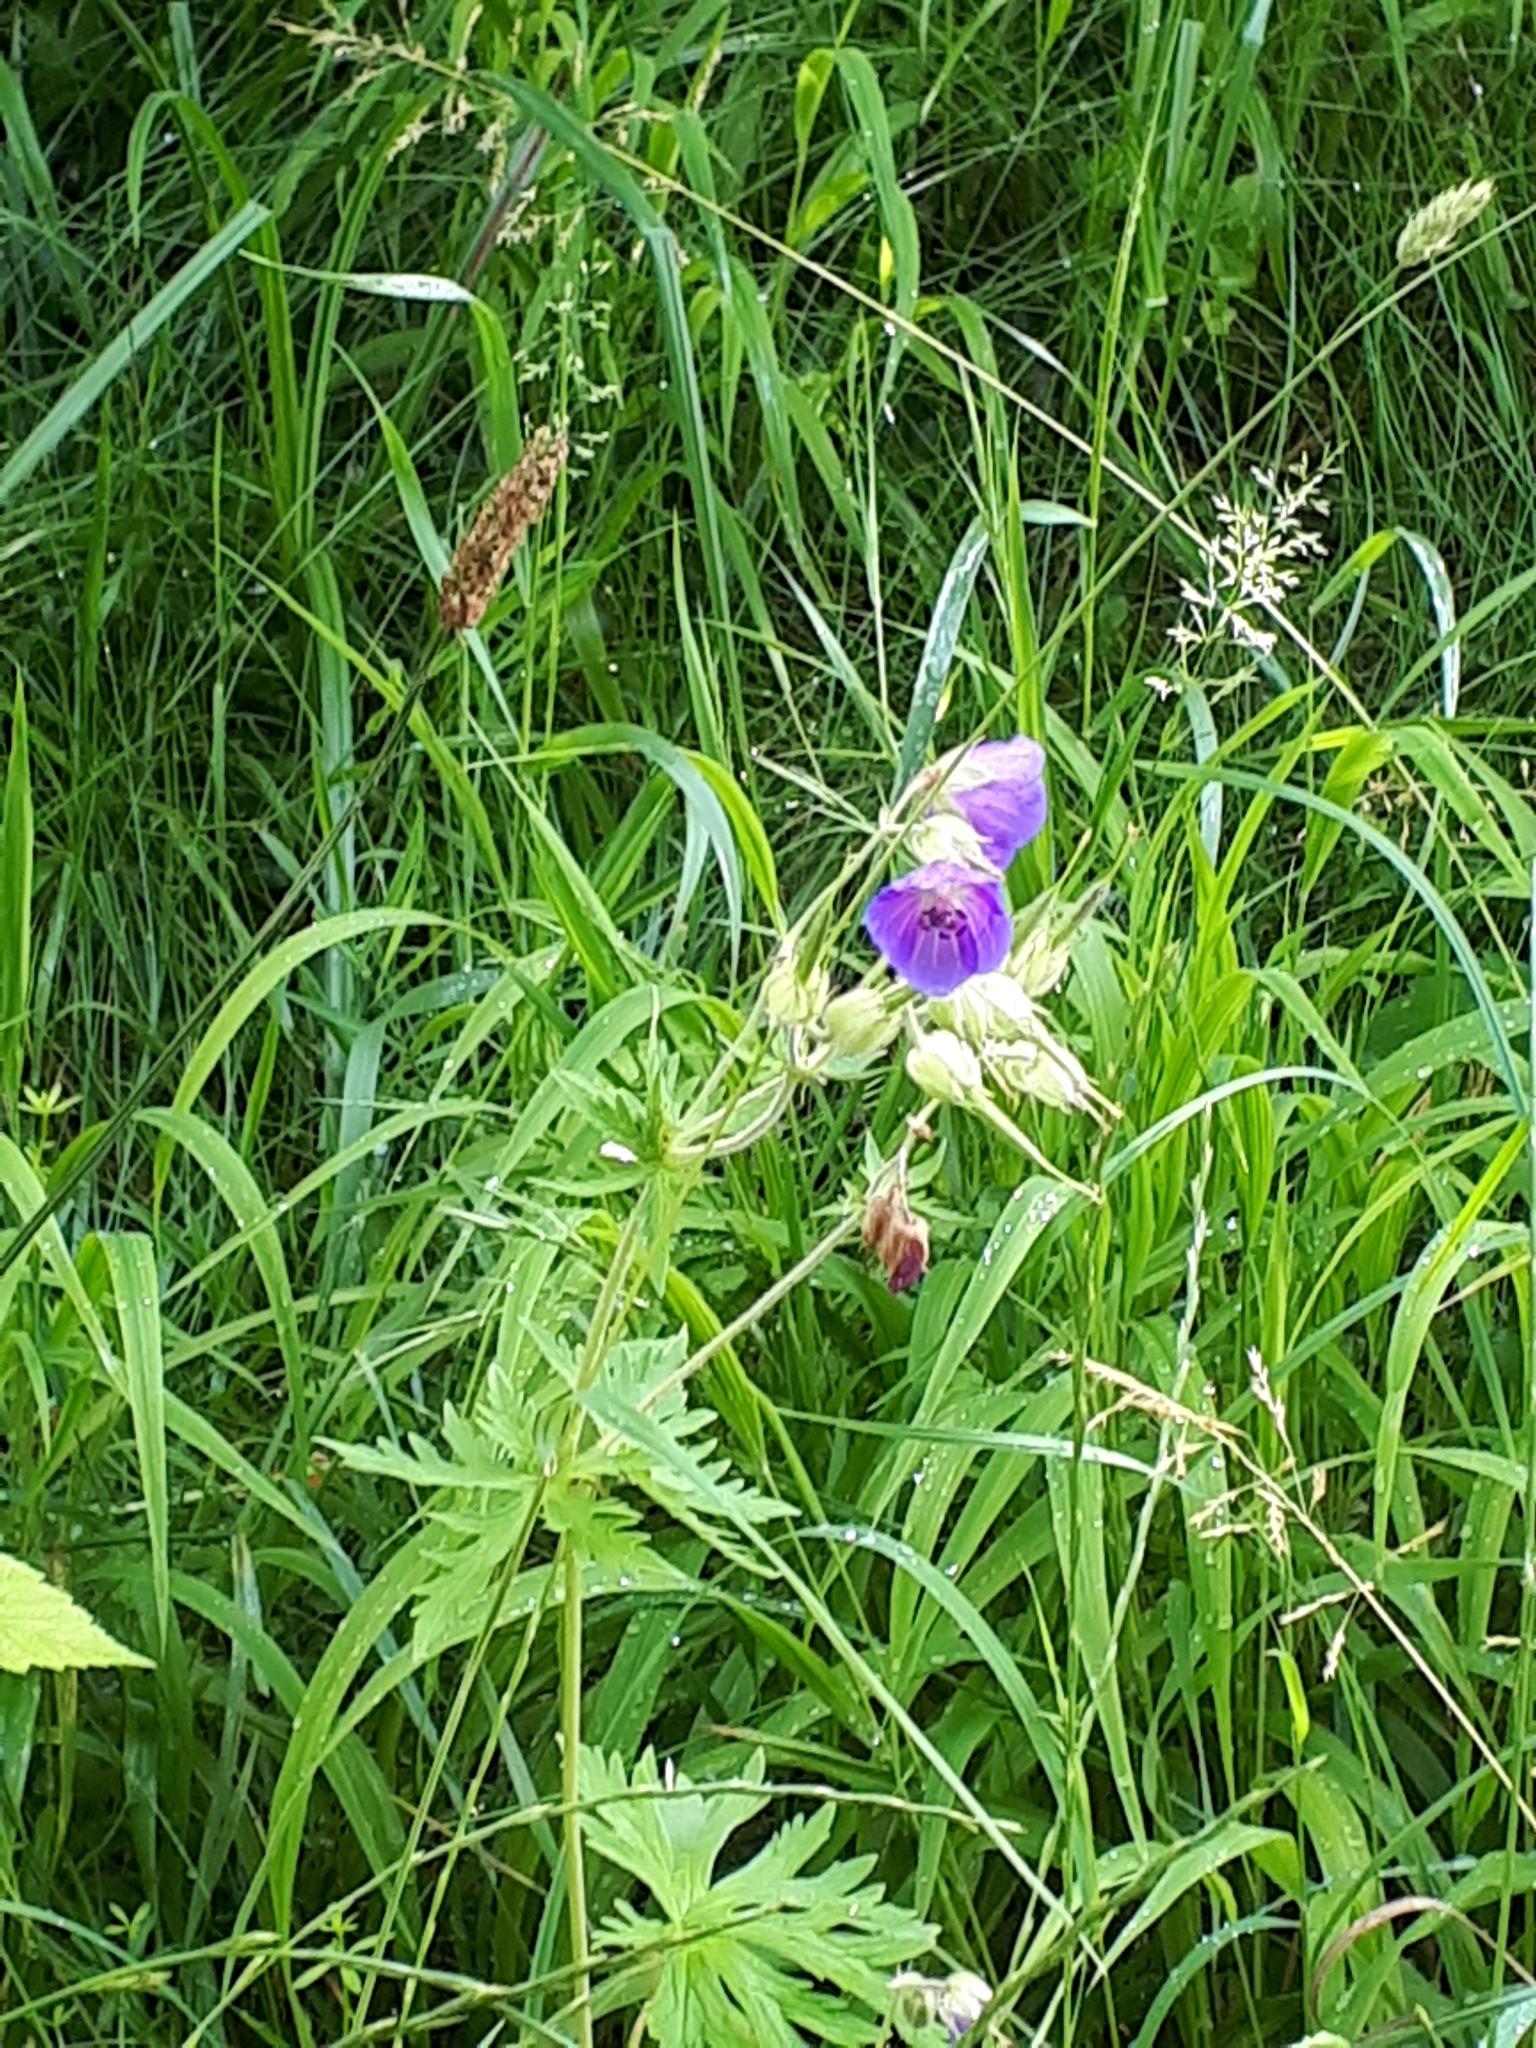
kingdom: Plantae
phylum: Tracheophyta
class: Magnoliopsida
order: Geraniales
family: Geraniaceae
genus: Geranium
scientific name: Geranium pratense
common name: Meadow crane's-bill
